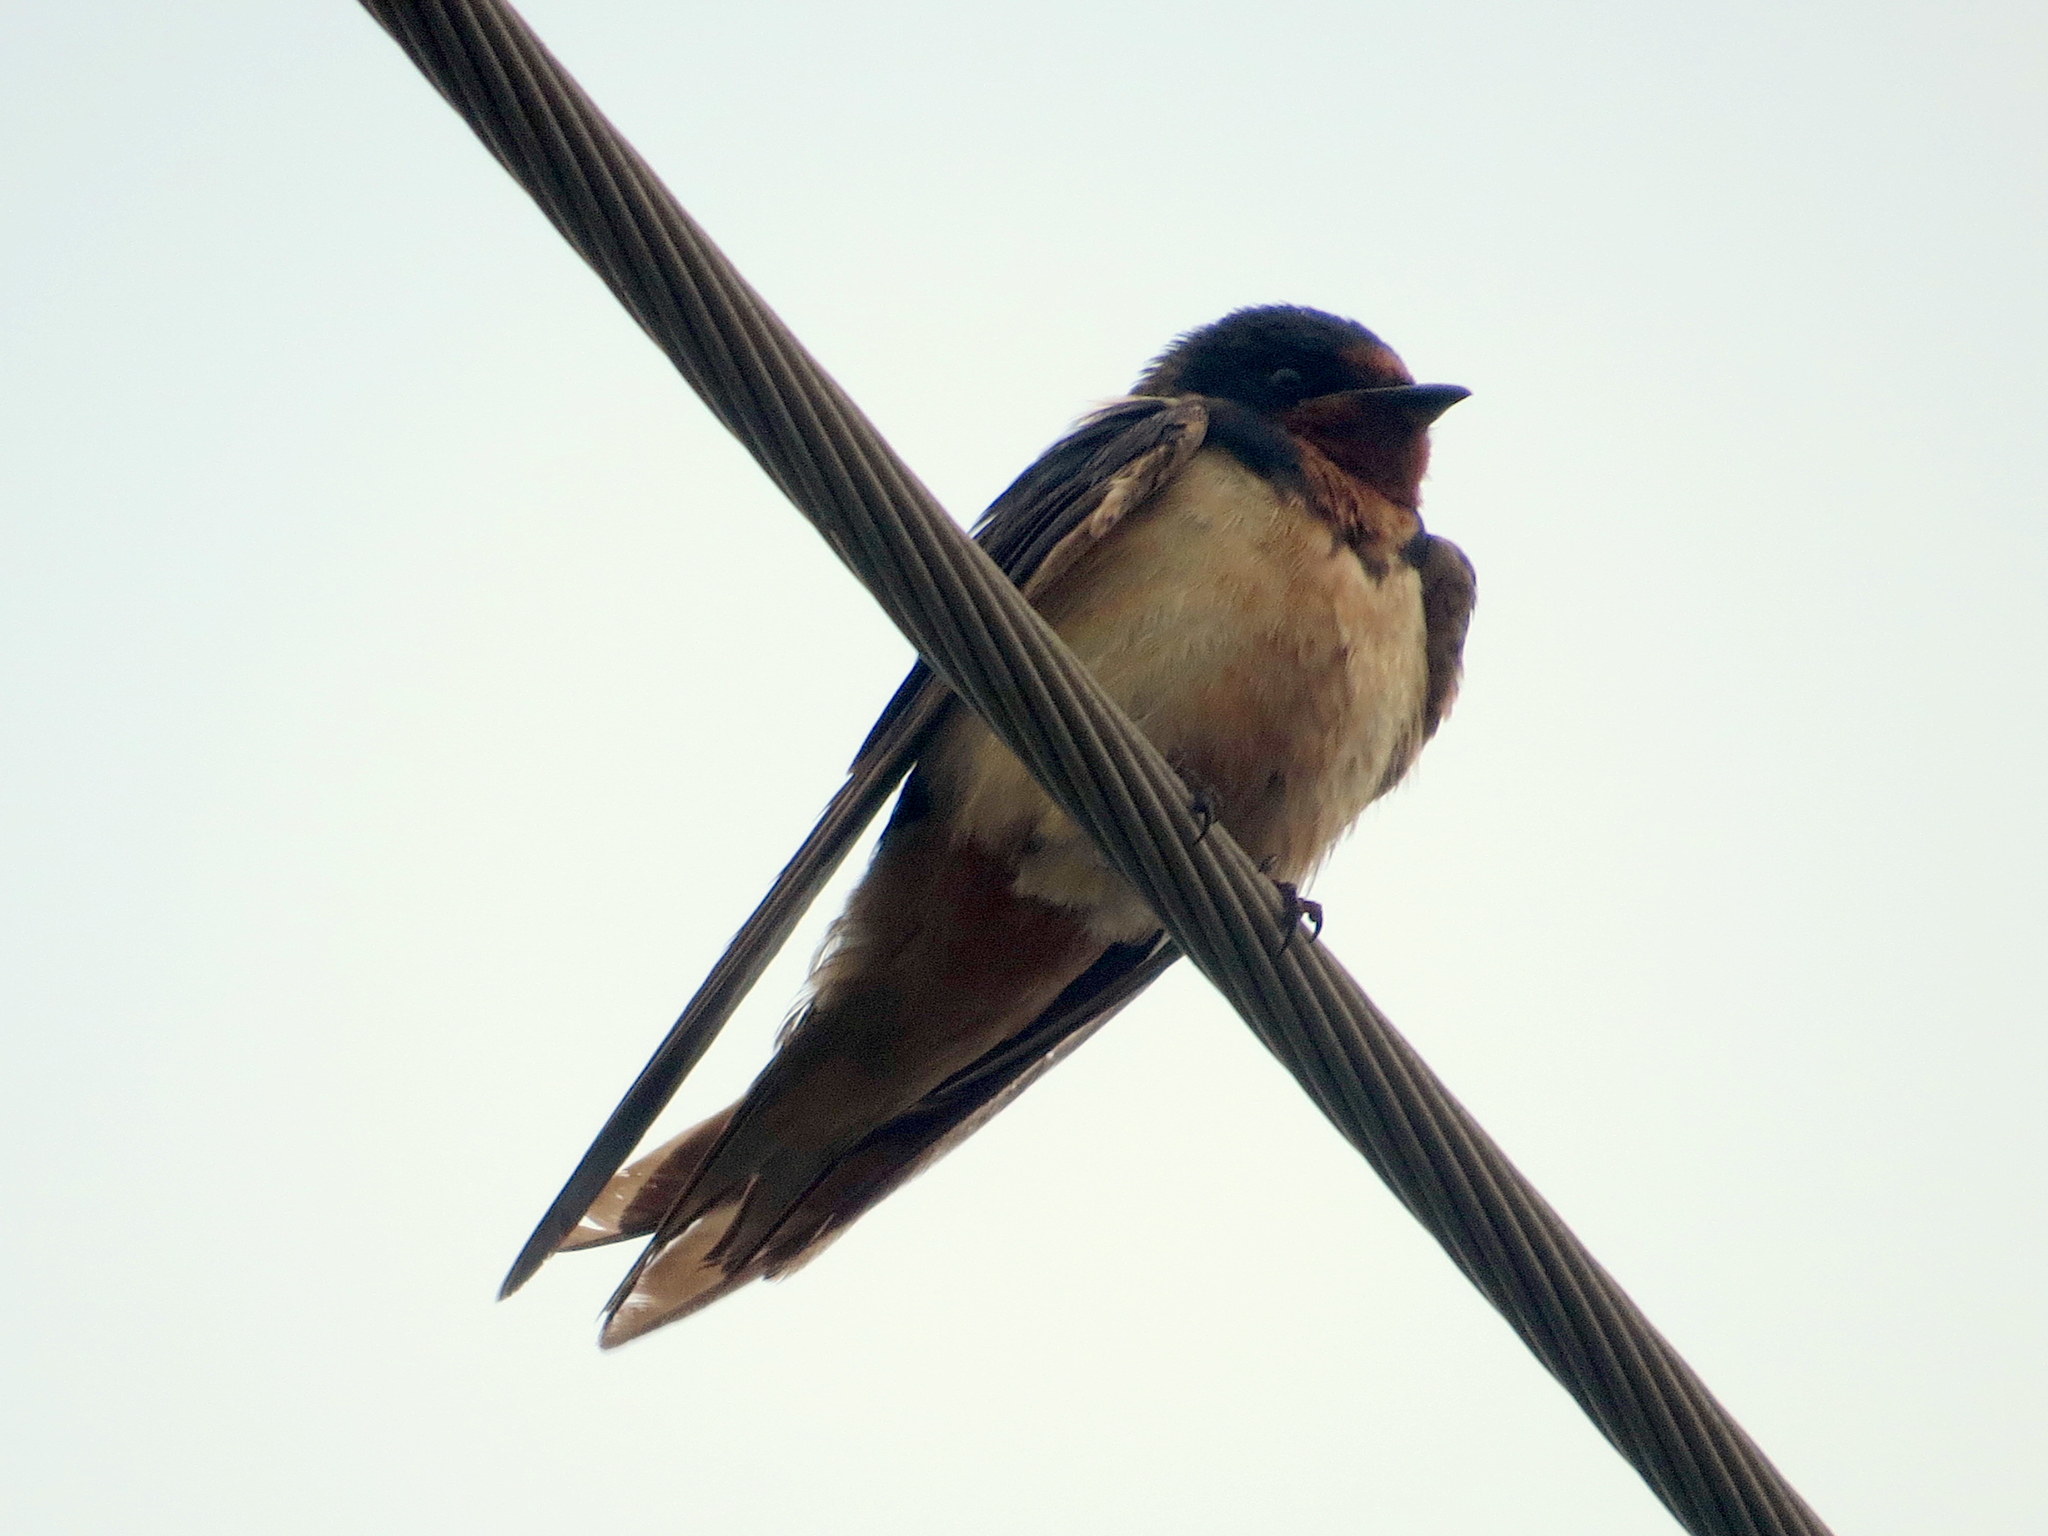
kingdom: Animalia
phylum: Chordata
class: Aves
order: Passeriformes
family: Hirundinidae
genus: Hirundo
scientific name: Hirundo rustica
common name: Barn swallow
